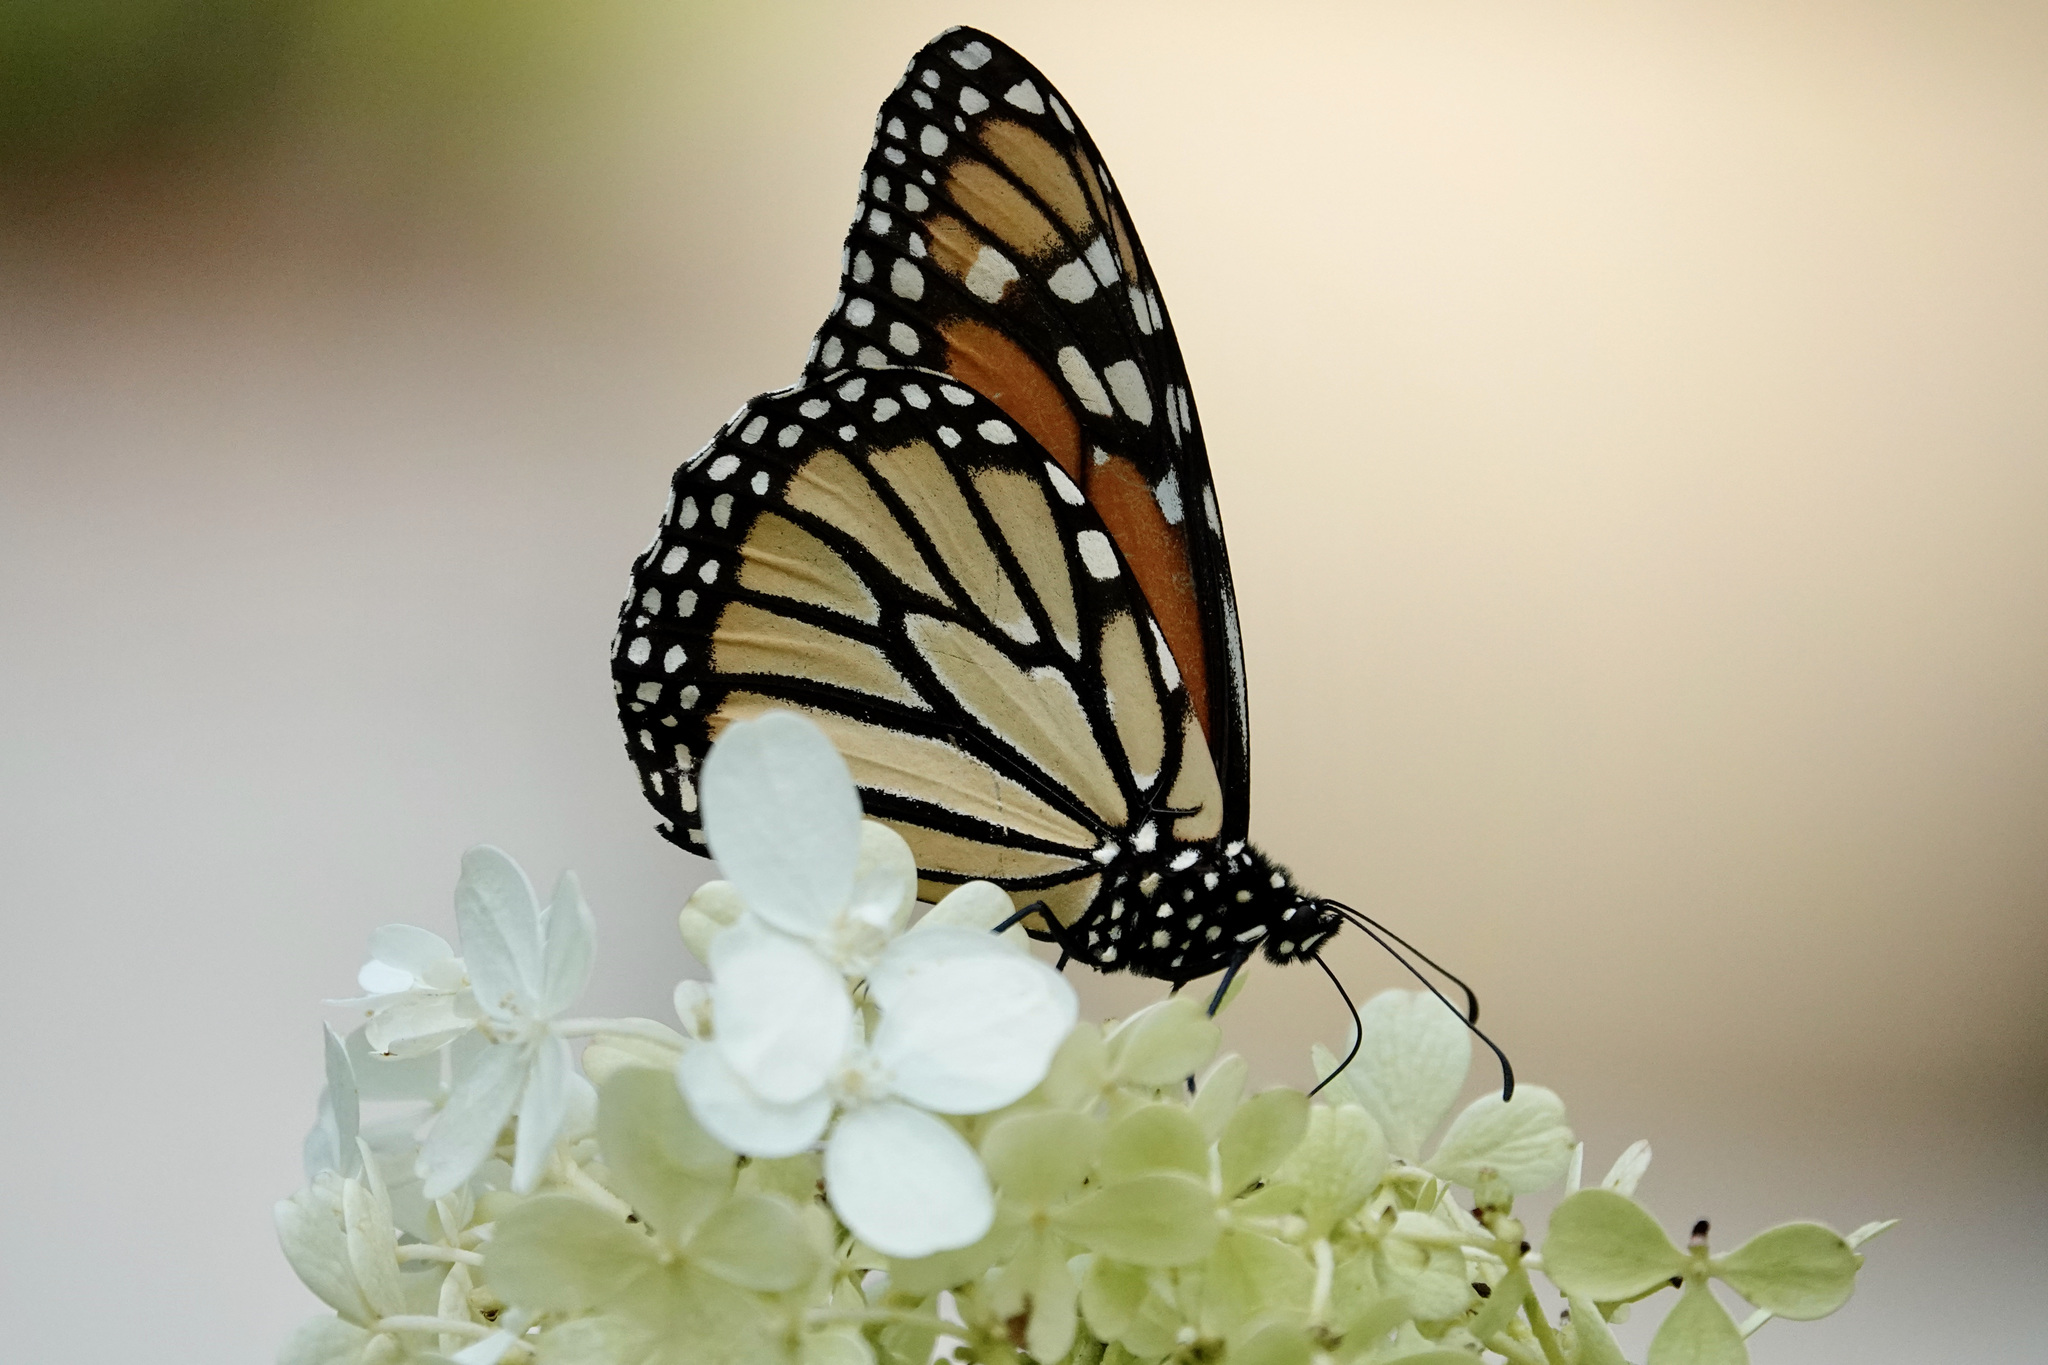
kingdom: Animalia
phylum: Arthropoda
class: Insecta
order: Lepidoptera
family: Nymphalidae
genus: Danaus
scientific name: Danaus plexippus
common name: Monarch
